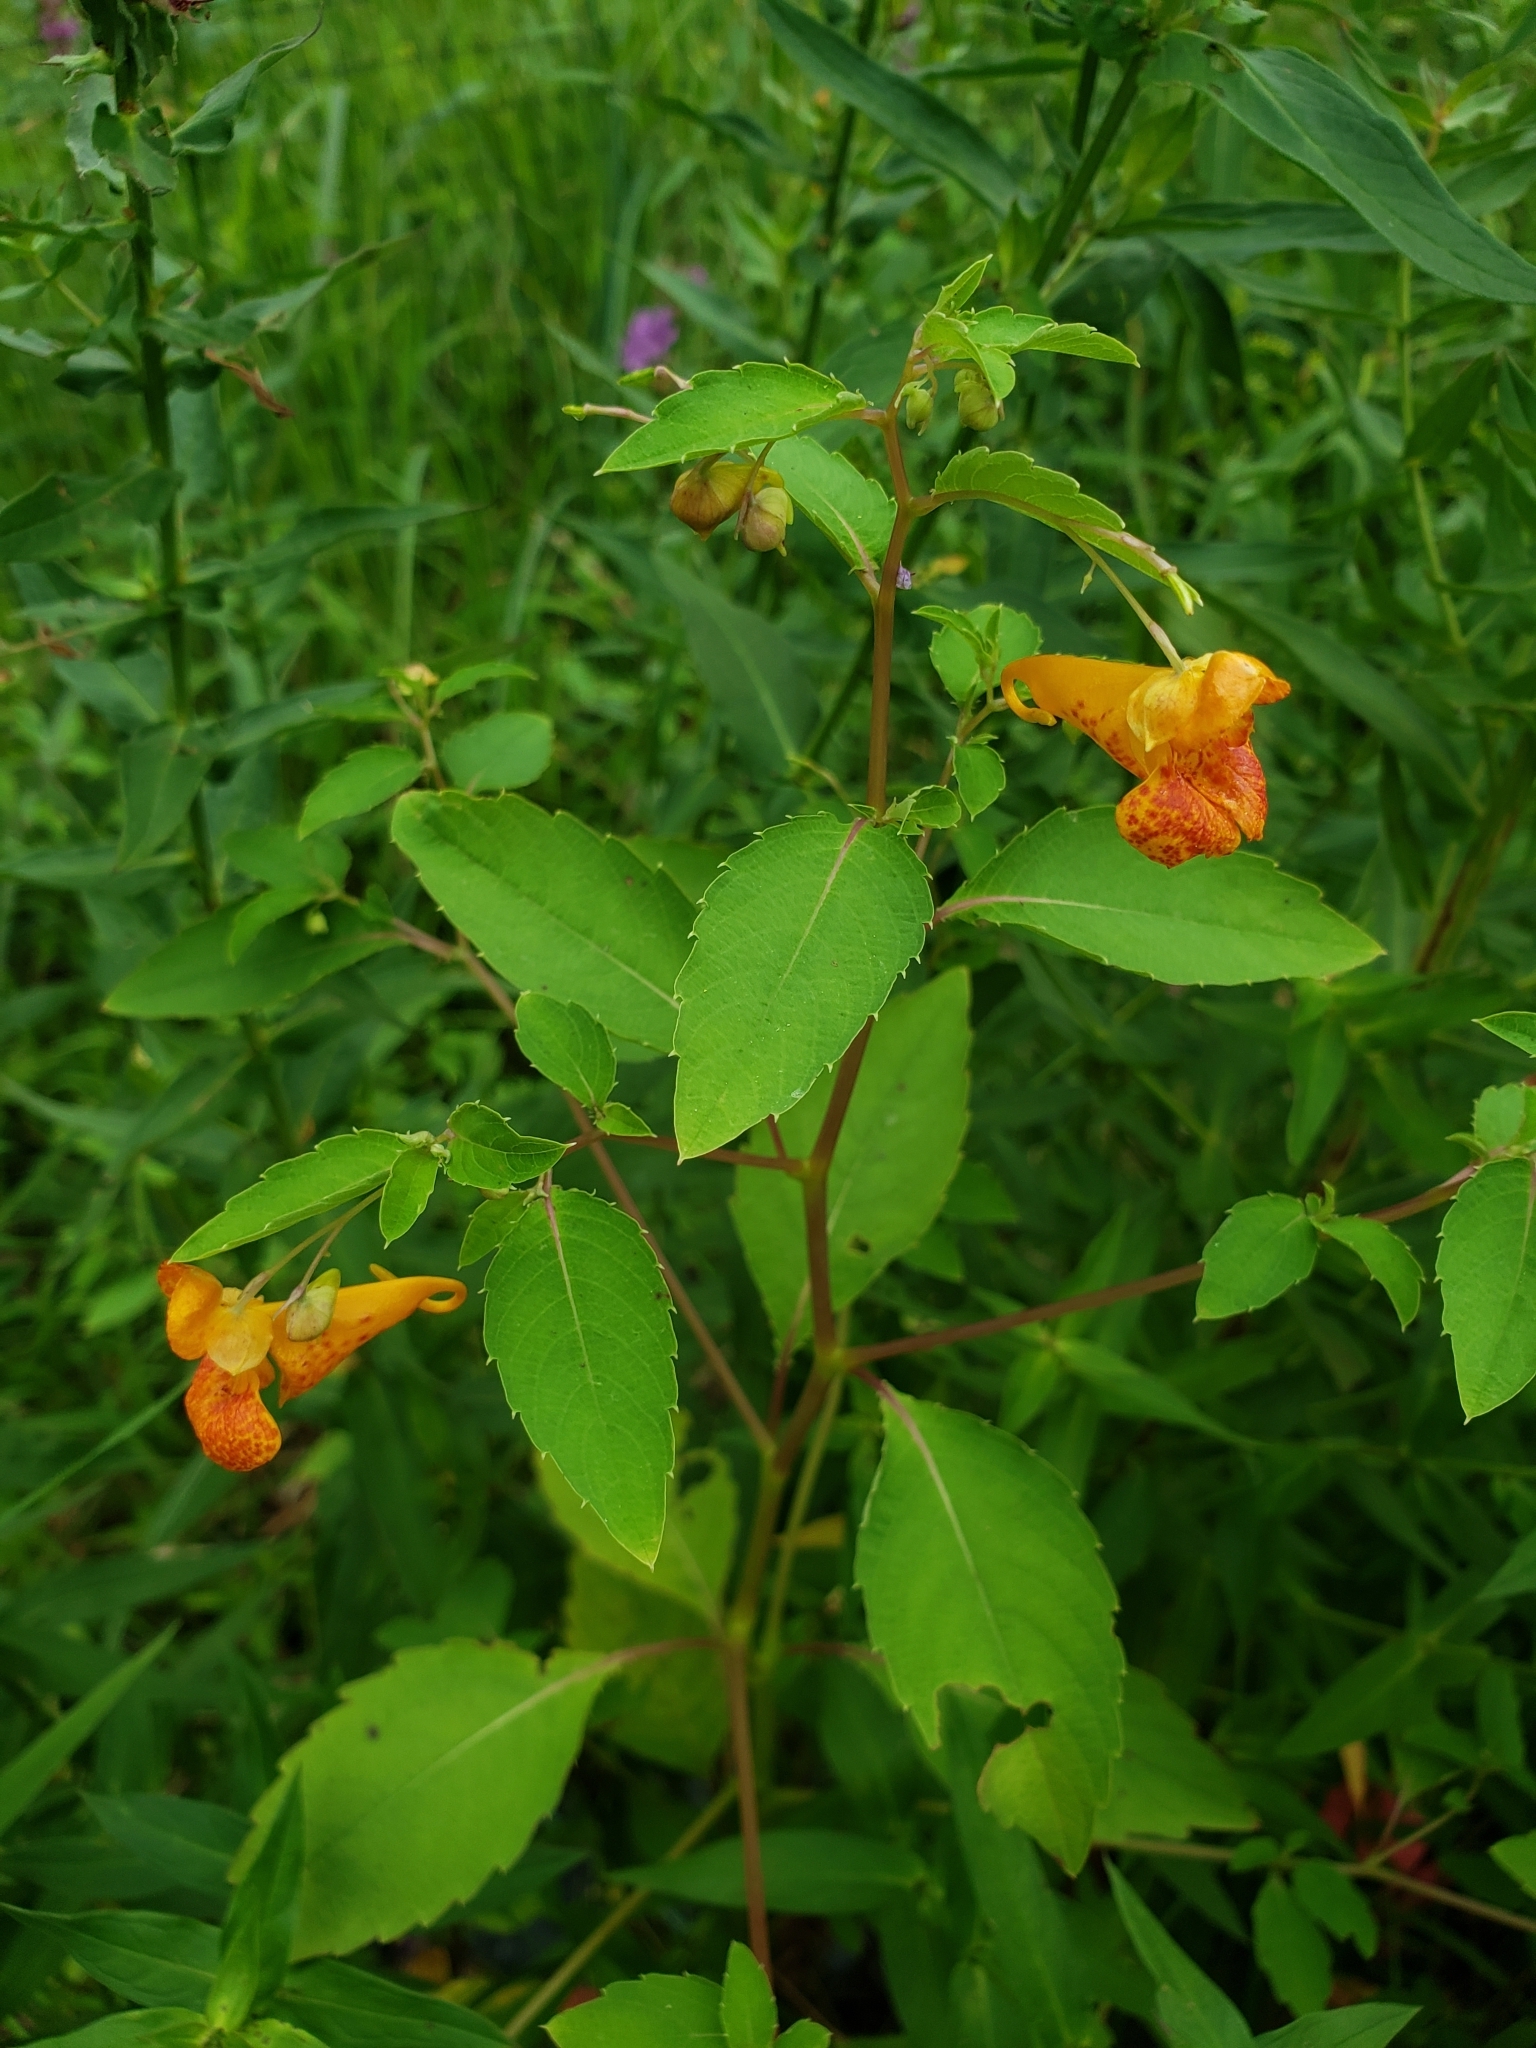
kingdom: Plantae
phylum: Tracheophyta
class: Magnoliopsida
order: Ericales
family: Balsaminaceae
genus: Impatiens
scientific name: Impatiens capensis
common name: Orange balsam
